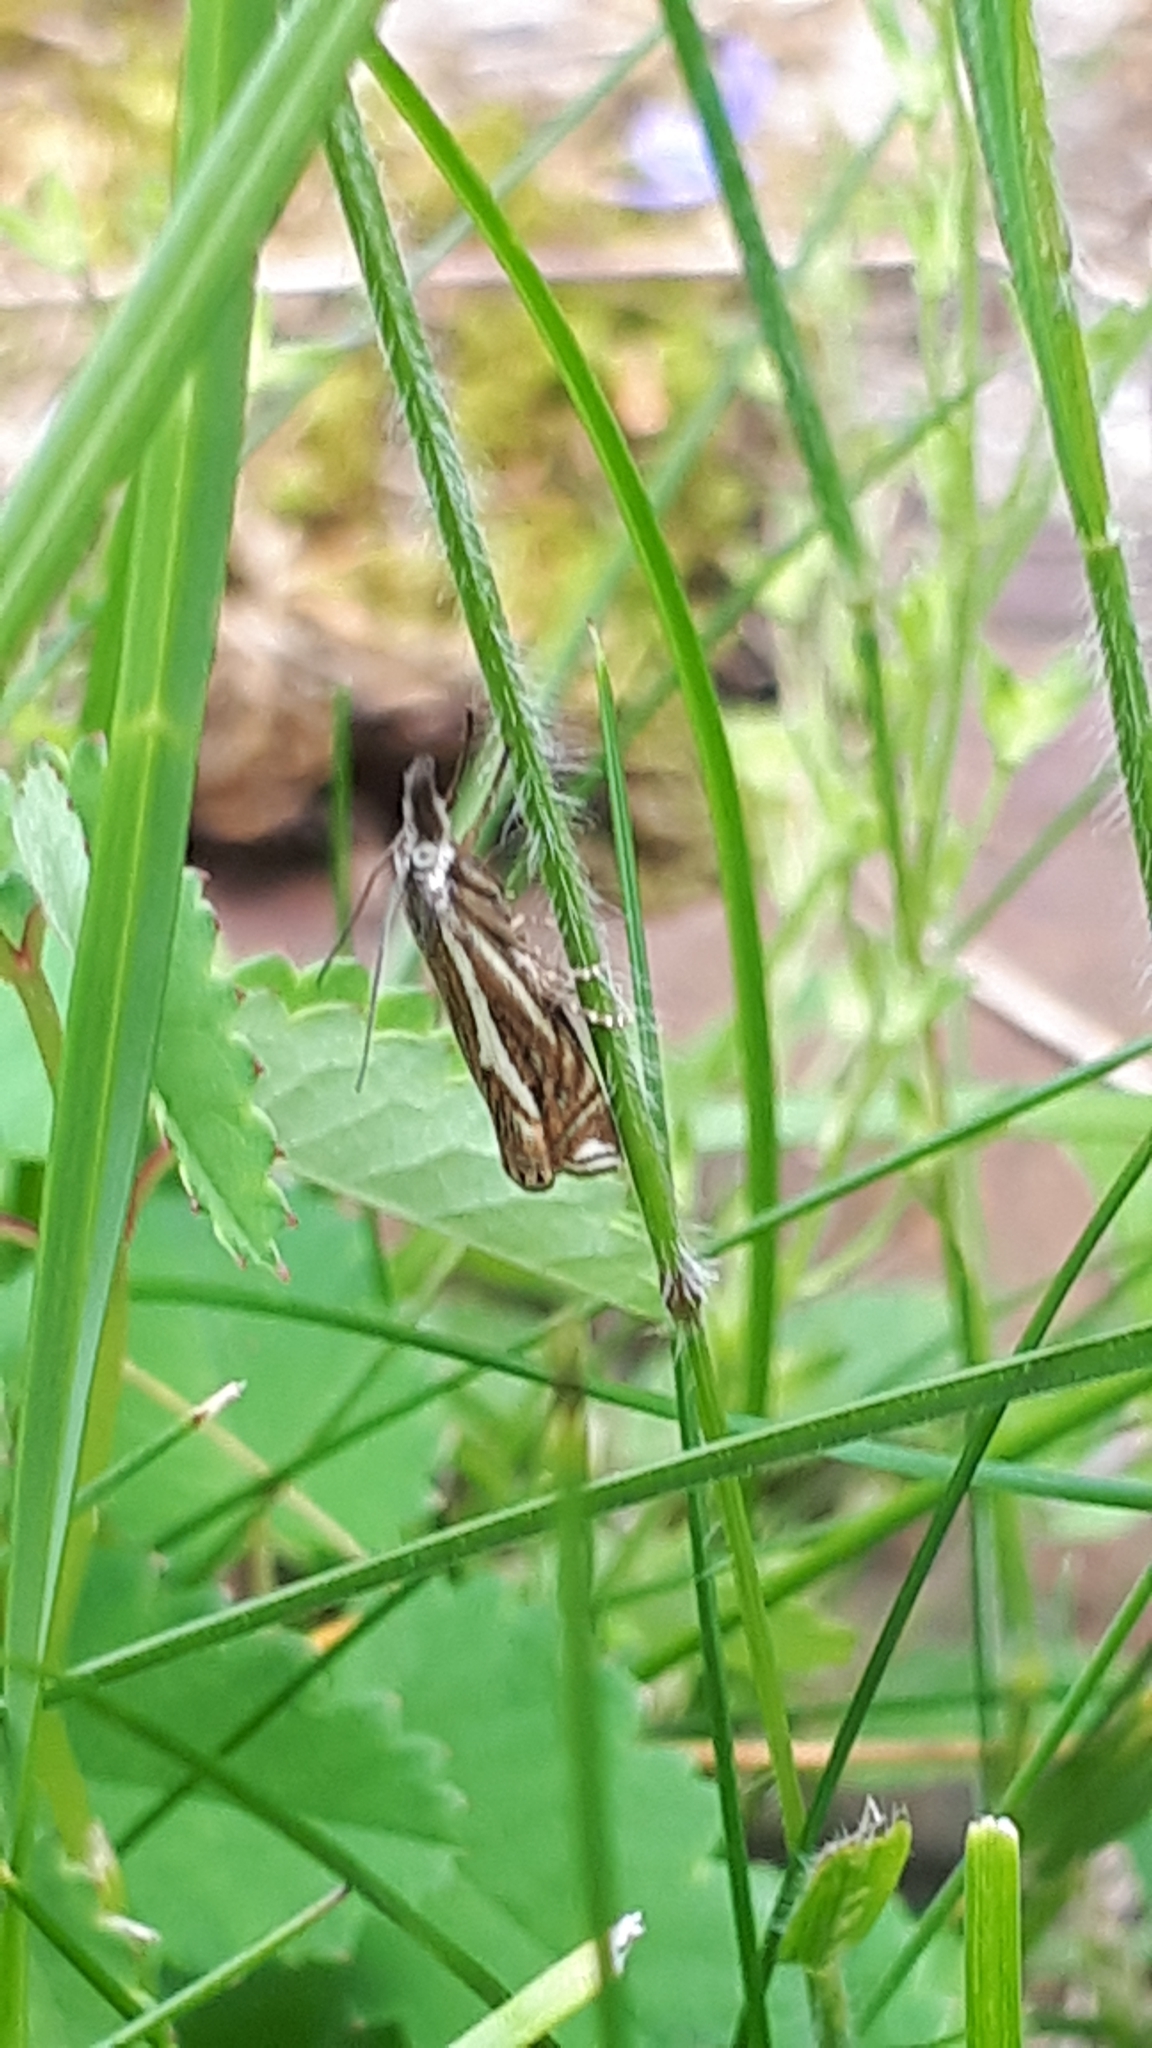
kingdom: Animalia
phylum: Arthropoda
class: Insecta
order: Lepidoptera
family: Crambidae
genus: Crambus
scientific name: Crambus nemorella
